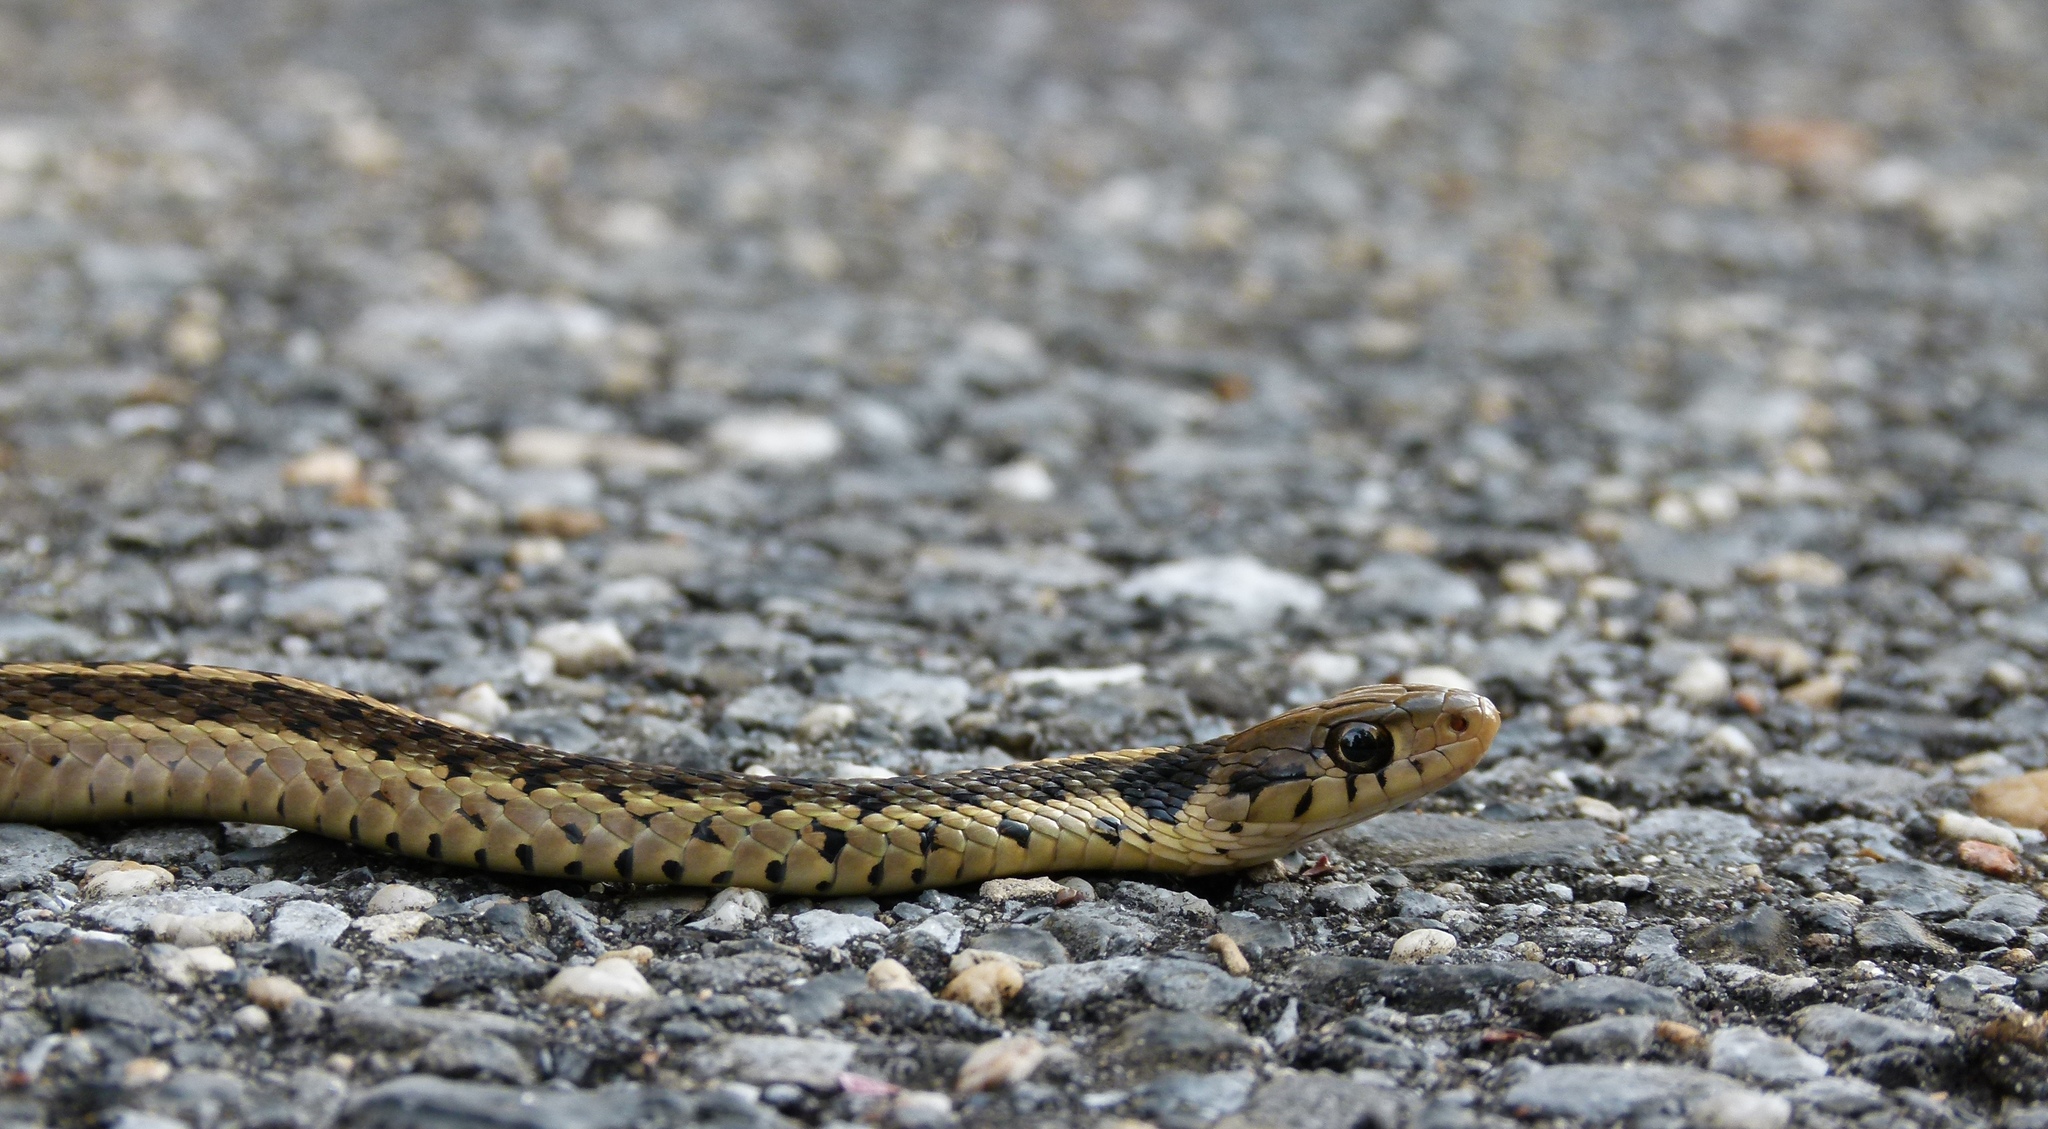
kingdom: Animalia
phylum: Chordata
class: Squamata
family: Colubridae
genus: Thamnophis
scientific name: Thamnophis sirtalis
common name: Common garter snake
